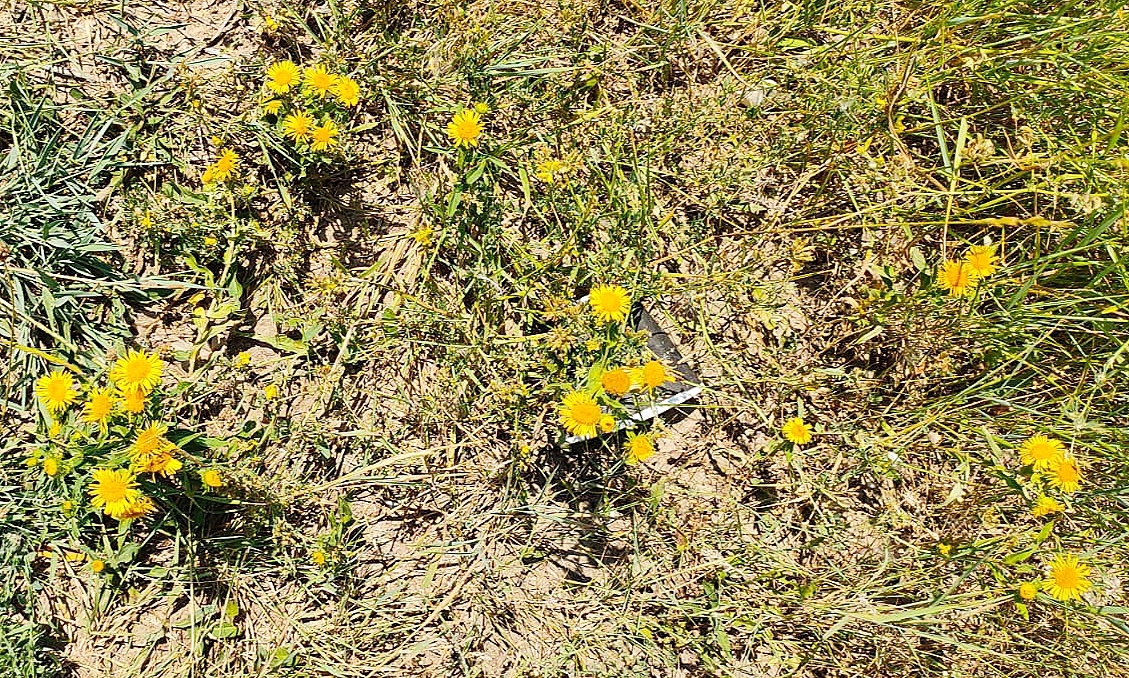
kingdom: Plantae
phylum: Tracheophyta
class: Magnoliopsida
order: Asterales
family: Asteraceae
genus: Pentanema
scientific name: Pentanema britannicum
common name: British elecampane
